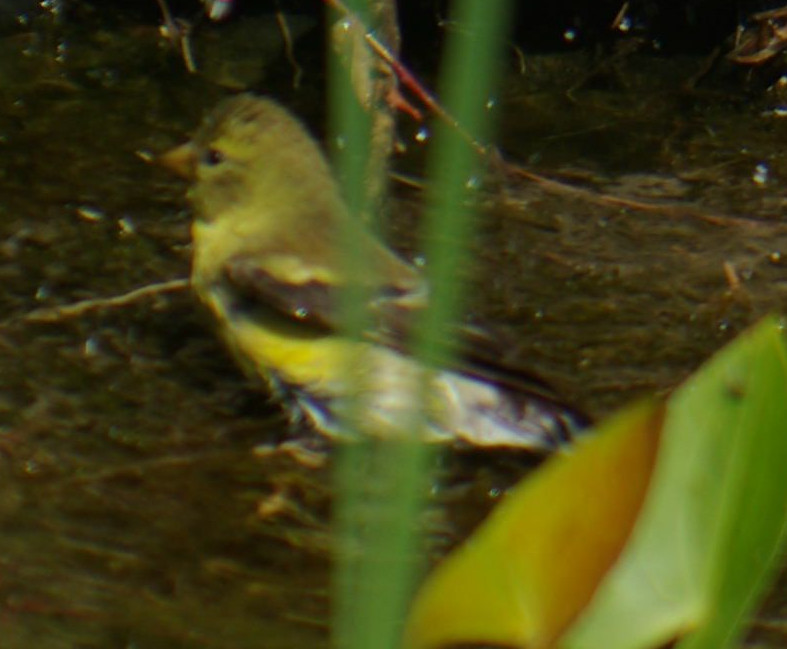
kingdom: Animalia
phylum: Chordata
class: Aves
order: Passeriformes
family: Fringillidae
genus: Spinus
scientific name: Spinus tristis
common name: American goldfinch
